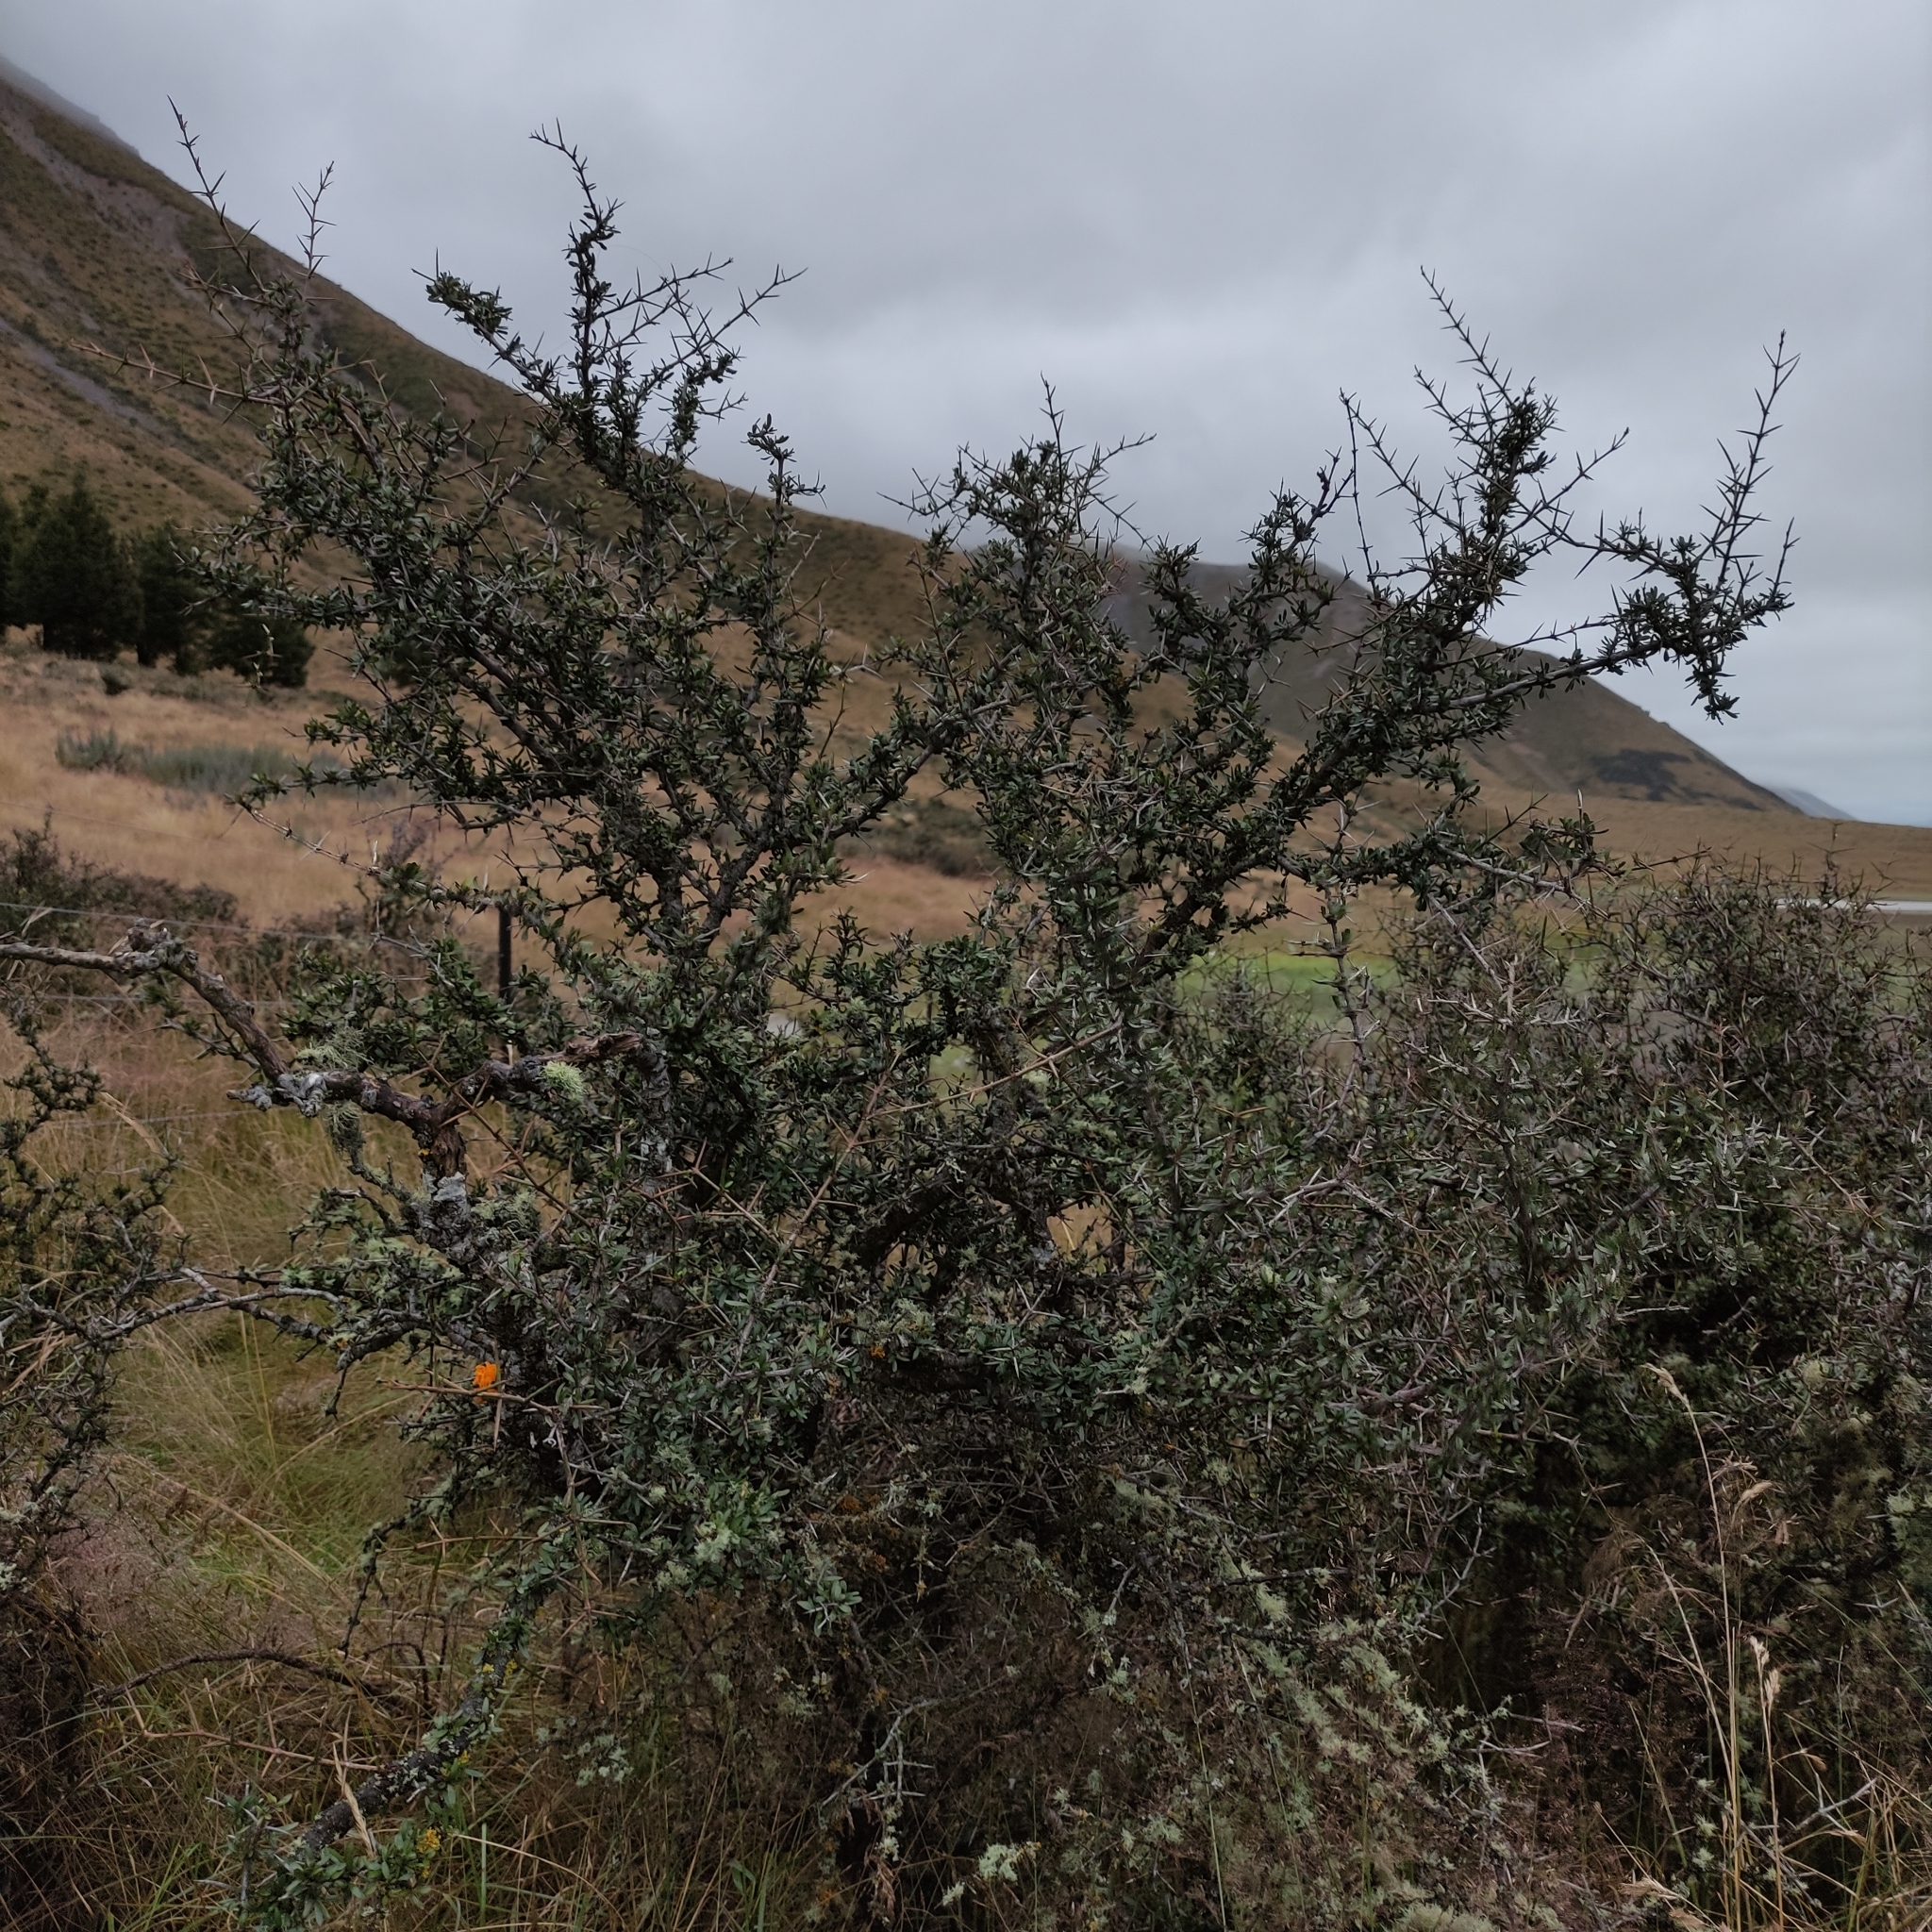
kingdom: Plantae
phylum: Tracheophyta
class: Magnoliopsida
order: Rosales
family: Rhamnaceae
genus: Discaria
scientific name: Discaria toumatou
